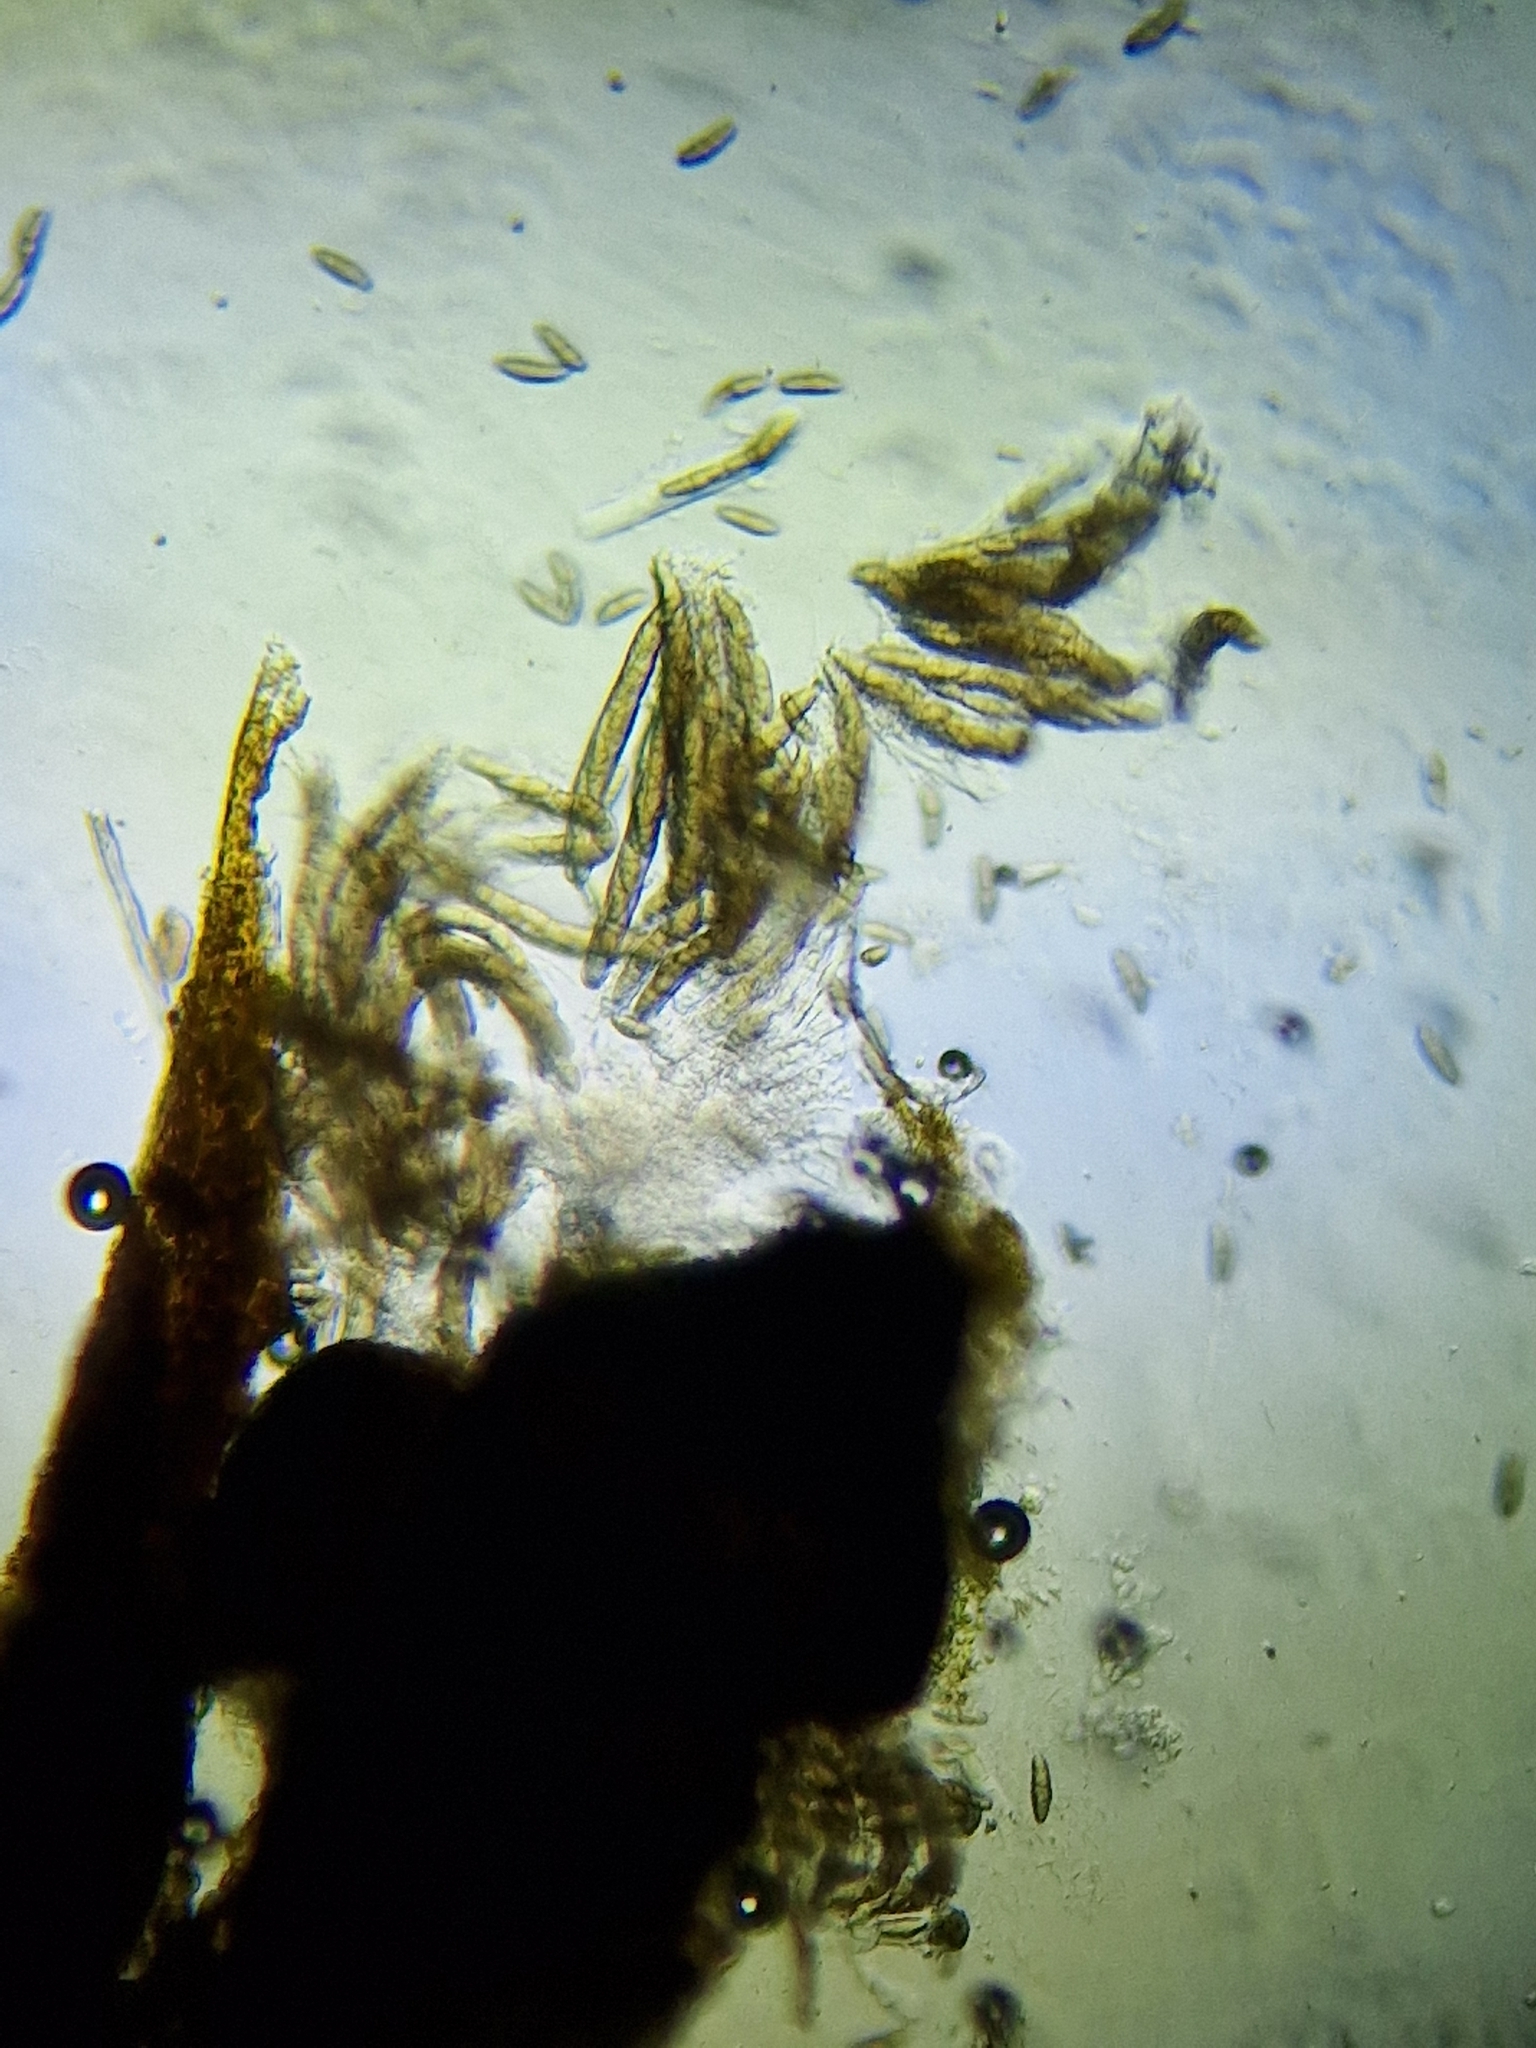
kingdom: Fungi
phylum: Ascomycota
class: Dothideomycetes
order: Pleosporales
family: Lizoniaceae
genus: Lizonia
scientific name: Lizonia emperigonia
